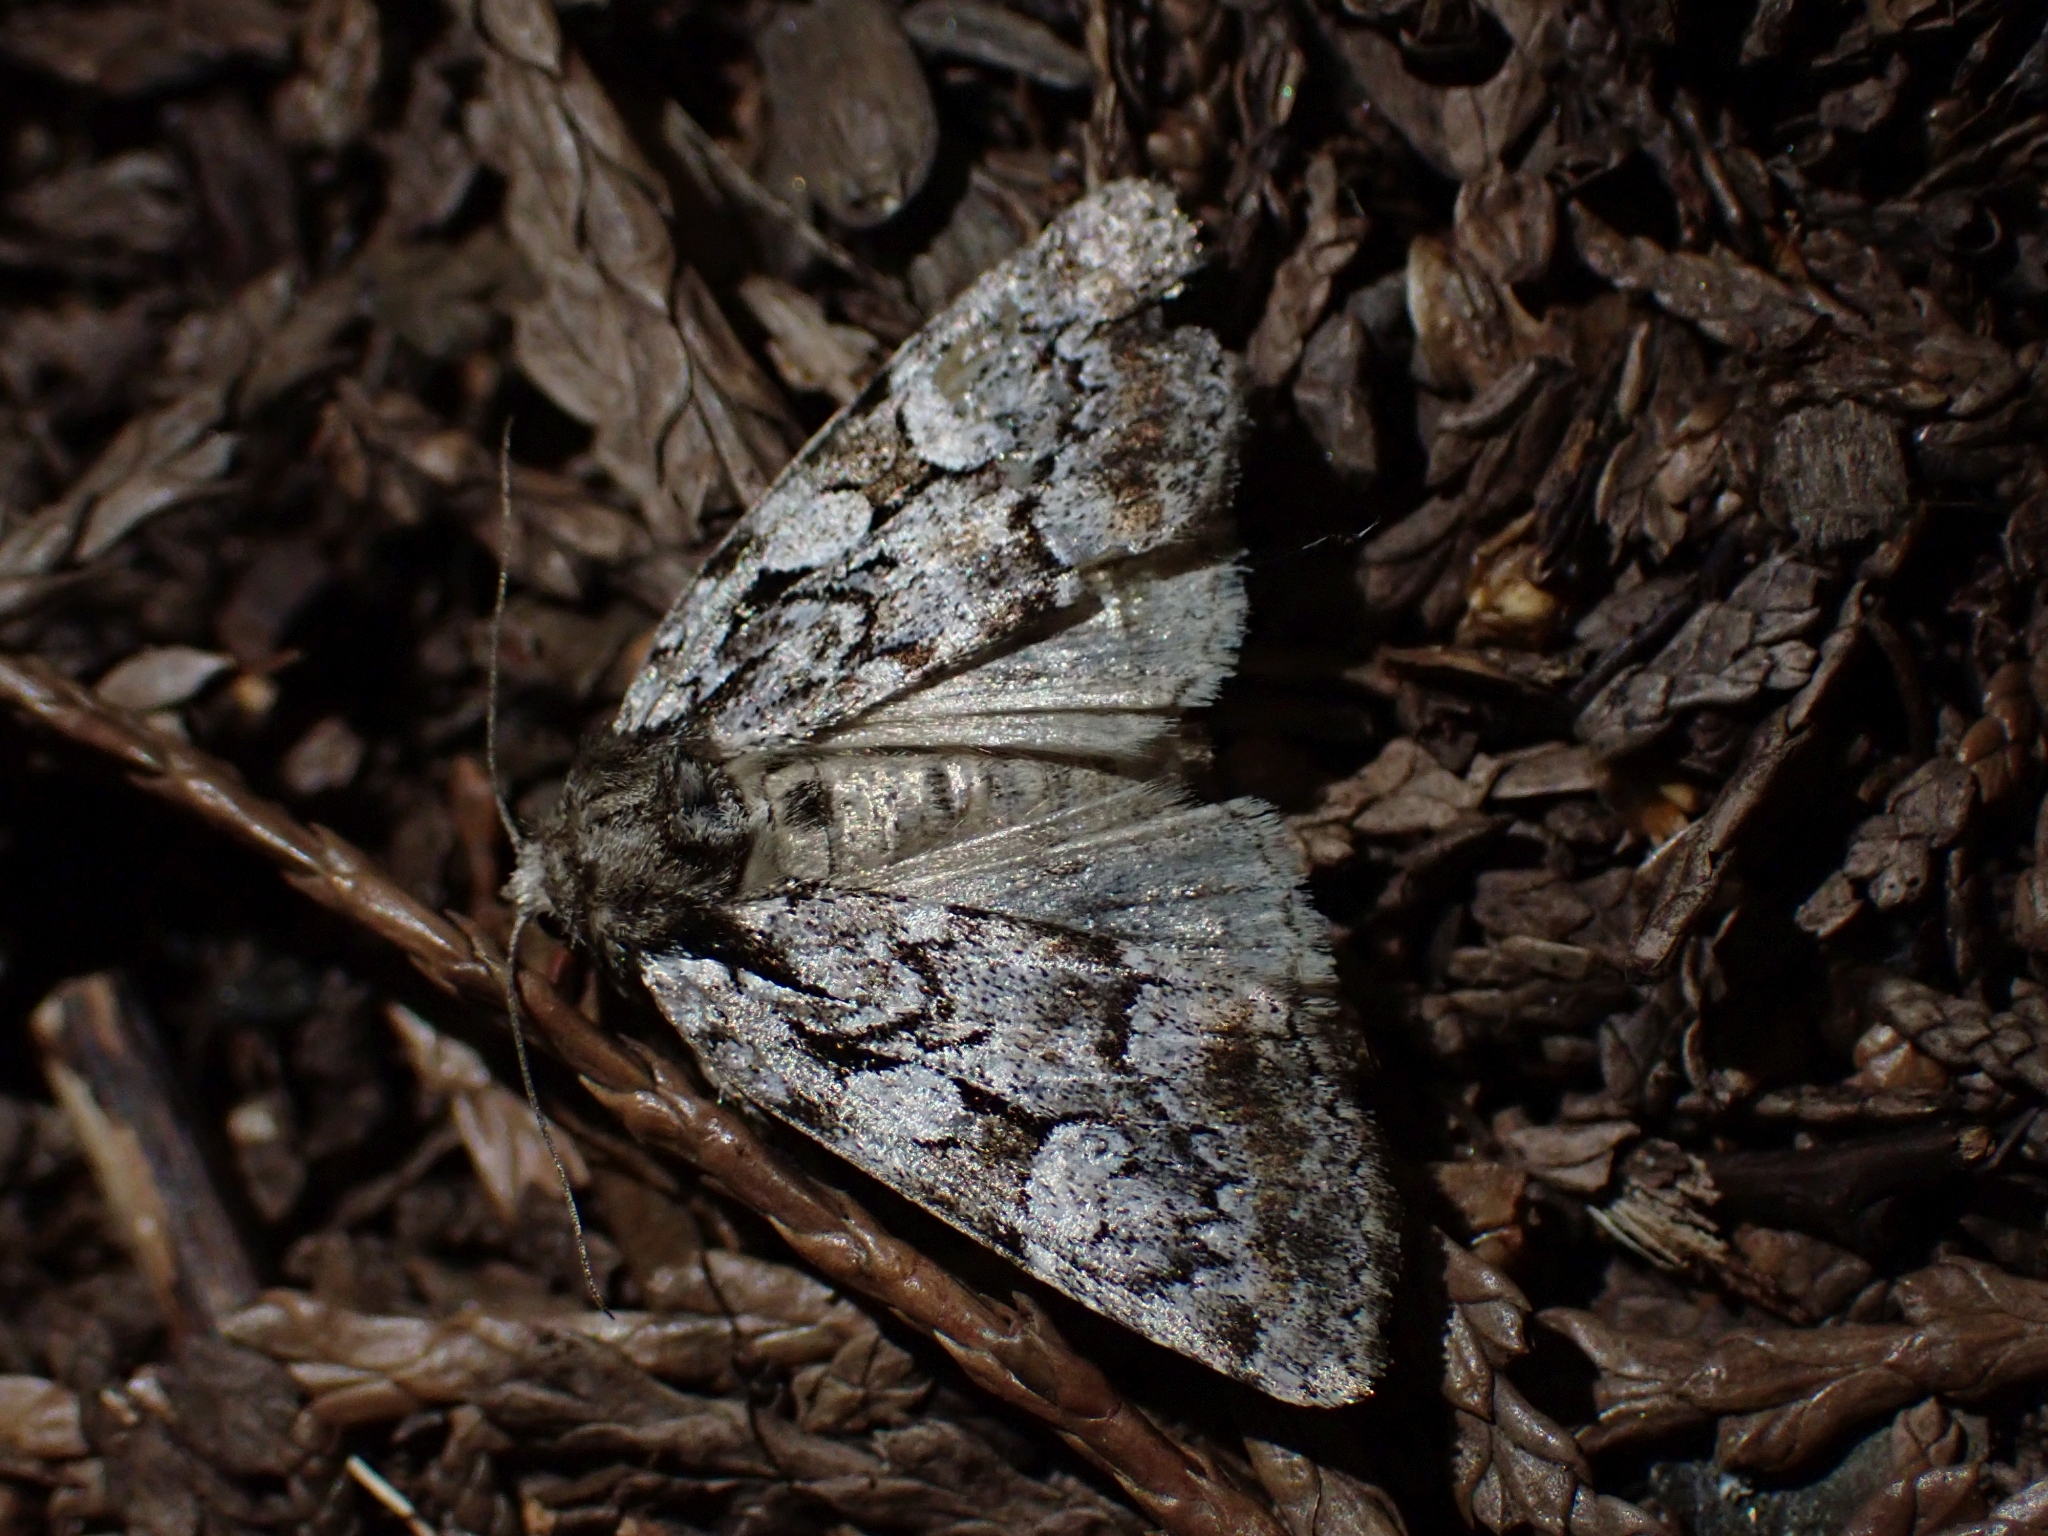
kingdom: Animalia
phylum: Arthropoda
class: Insecta
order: Lepidoptera
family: Noctuidae
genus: Aplectoides
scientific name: Aplectoides condita
